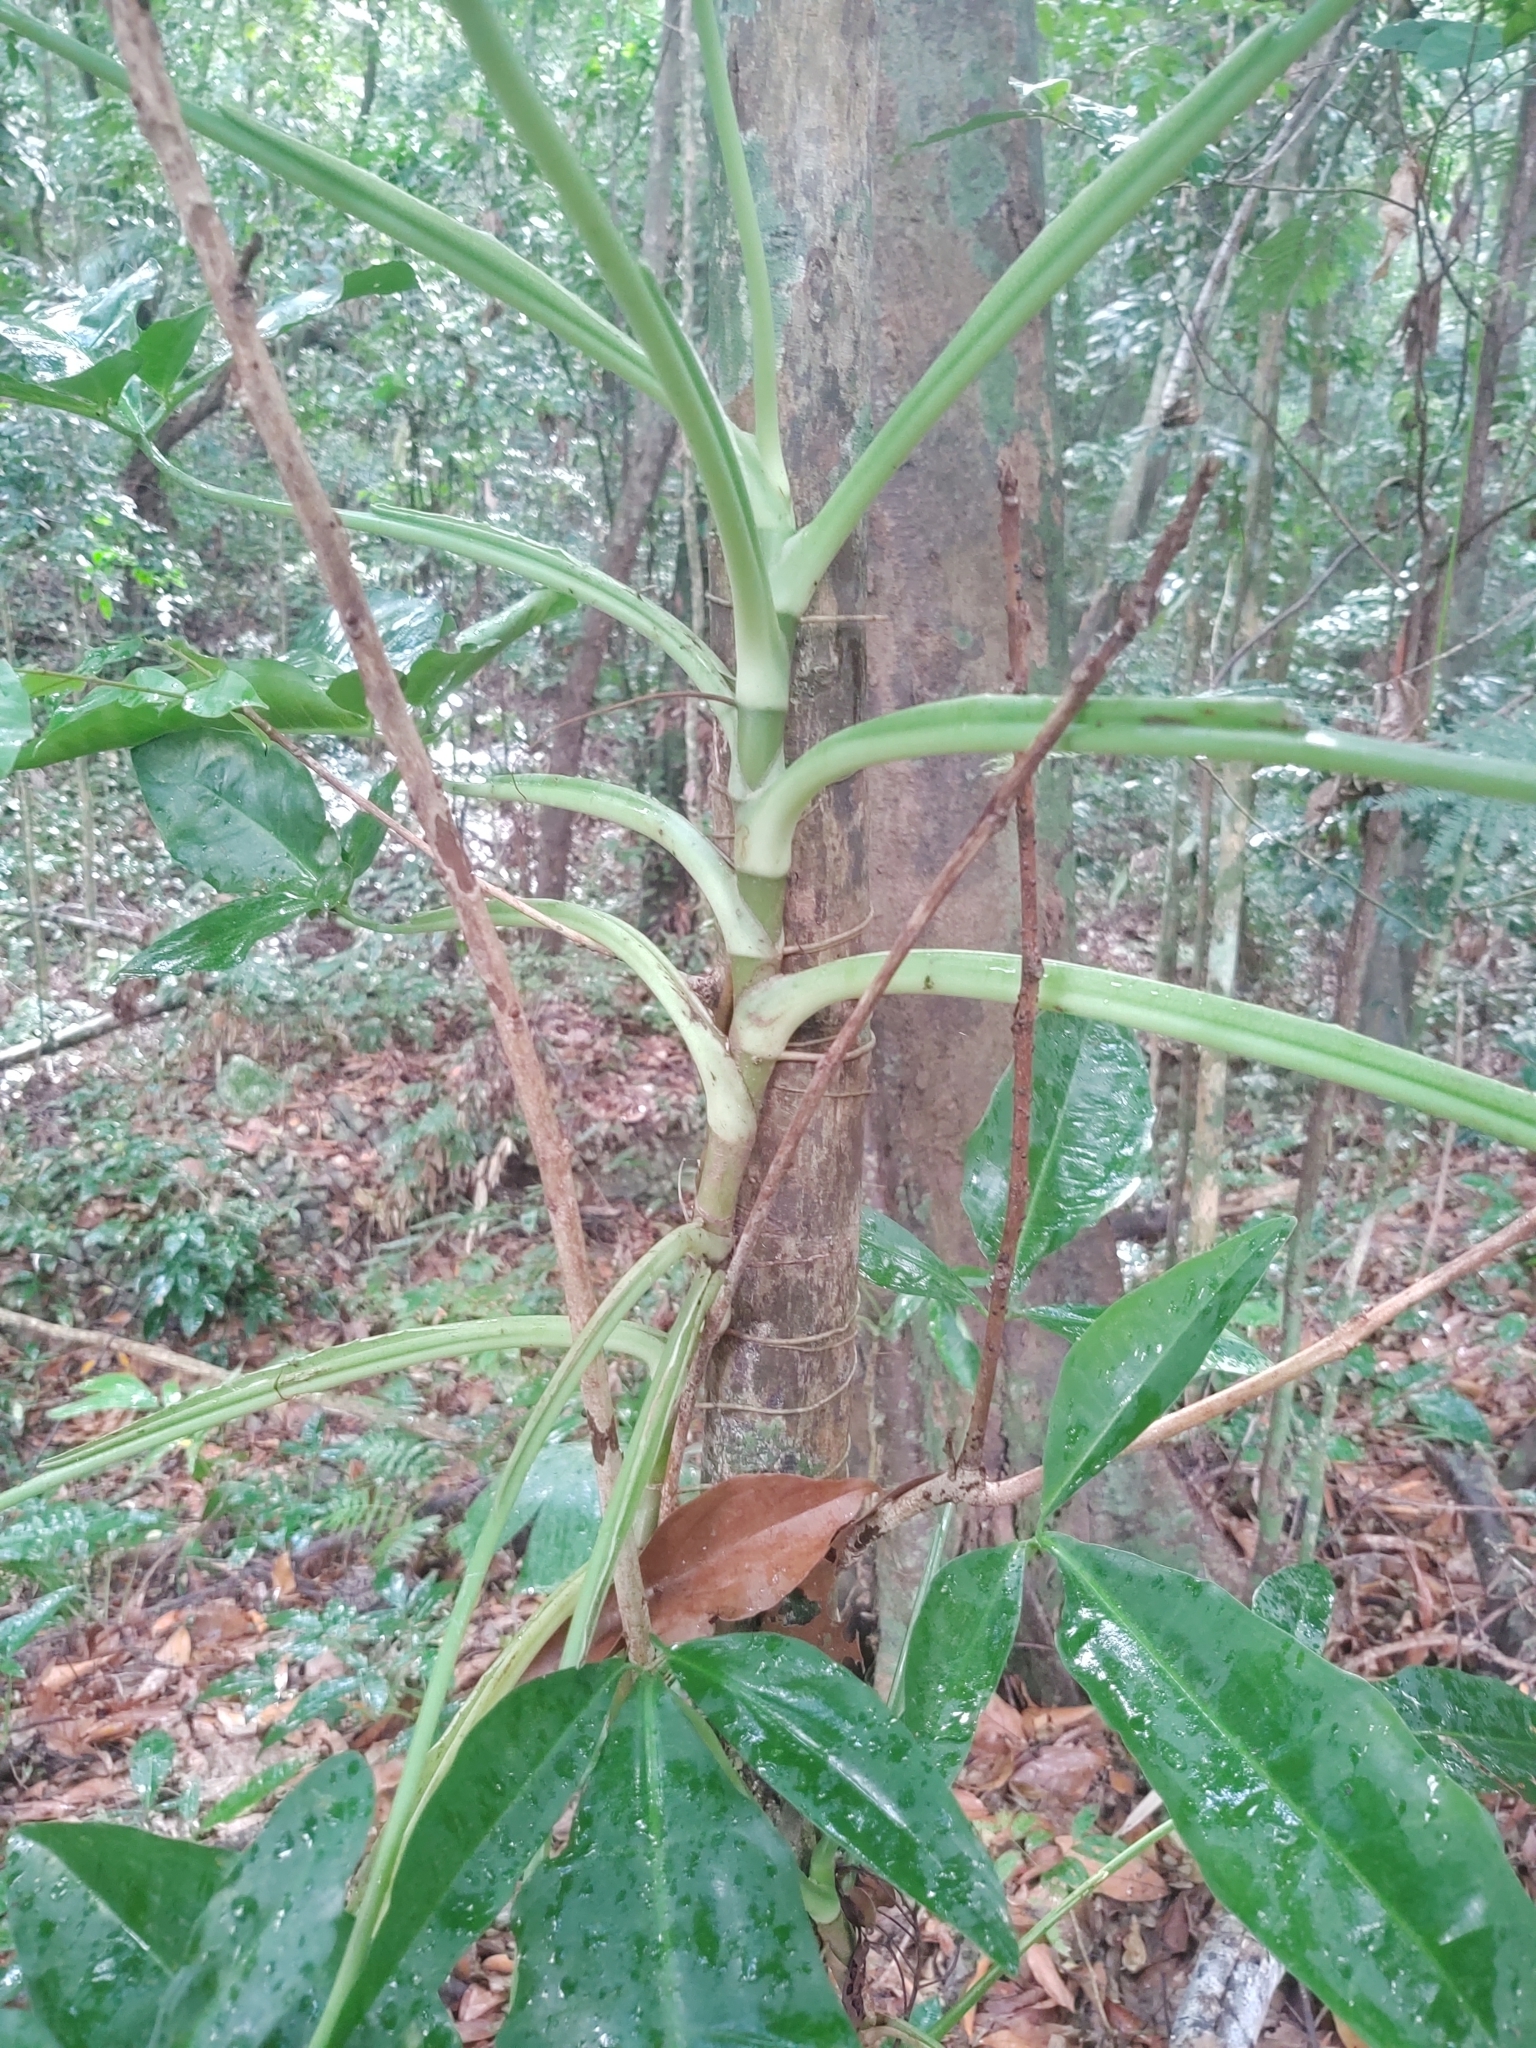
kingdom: Plantae
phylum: Tracheophyta
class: Liliopsida
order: Alismatales
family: Araceae
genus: Syngonium
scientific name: Syngonium auritum
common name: Five-fingers
